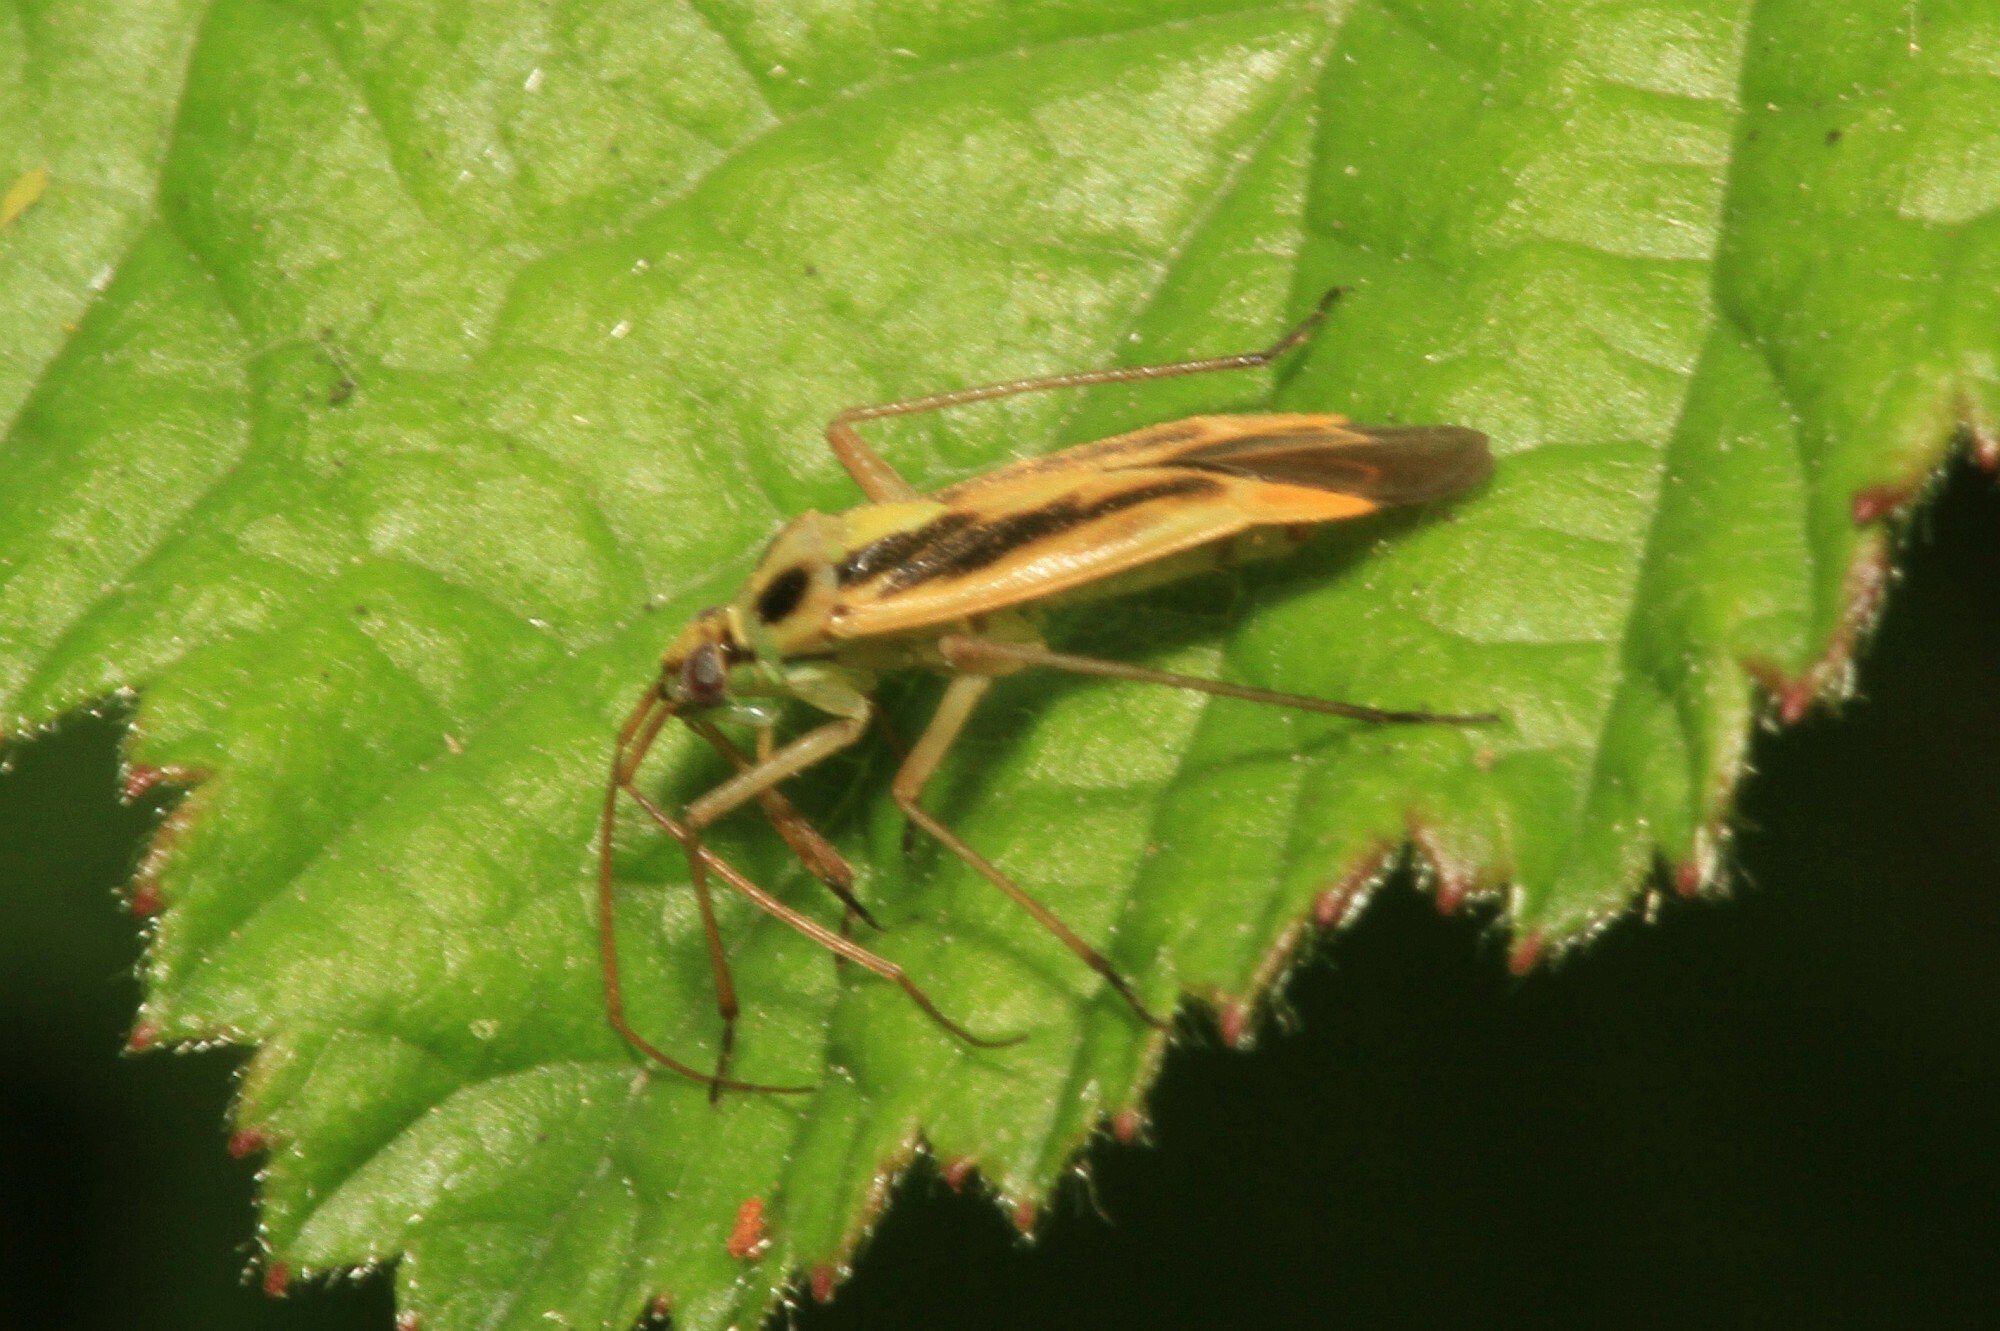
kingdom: Animalia
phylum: Arthropoda
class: Insecta
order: Hemiptera
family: Miridae
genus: Stenotus
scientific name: Stenotus binotatus
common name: Plant bug
